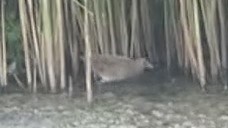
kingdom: Animalia
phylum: Chordata
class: Aves
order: Gruiformes
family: Rallidae
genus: Porzana
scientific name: Porzana porzana
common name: Spotted crake
